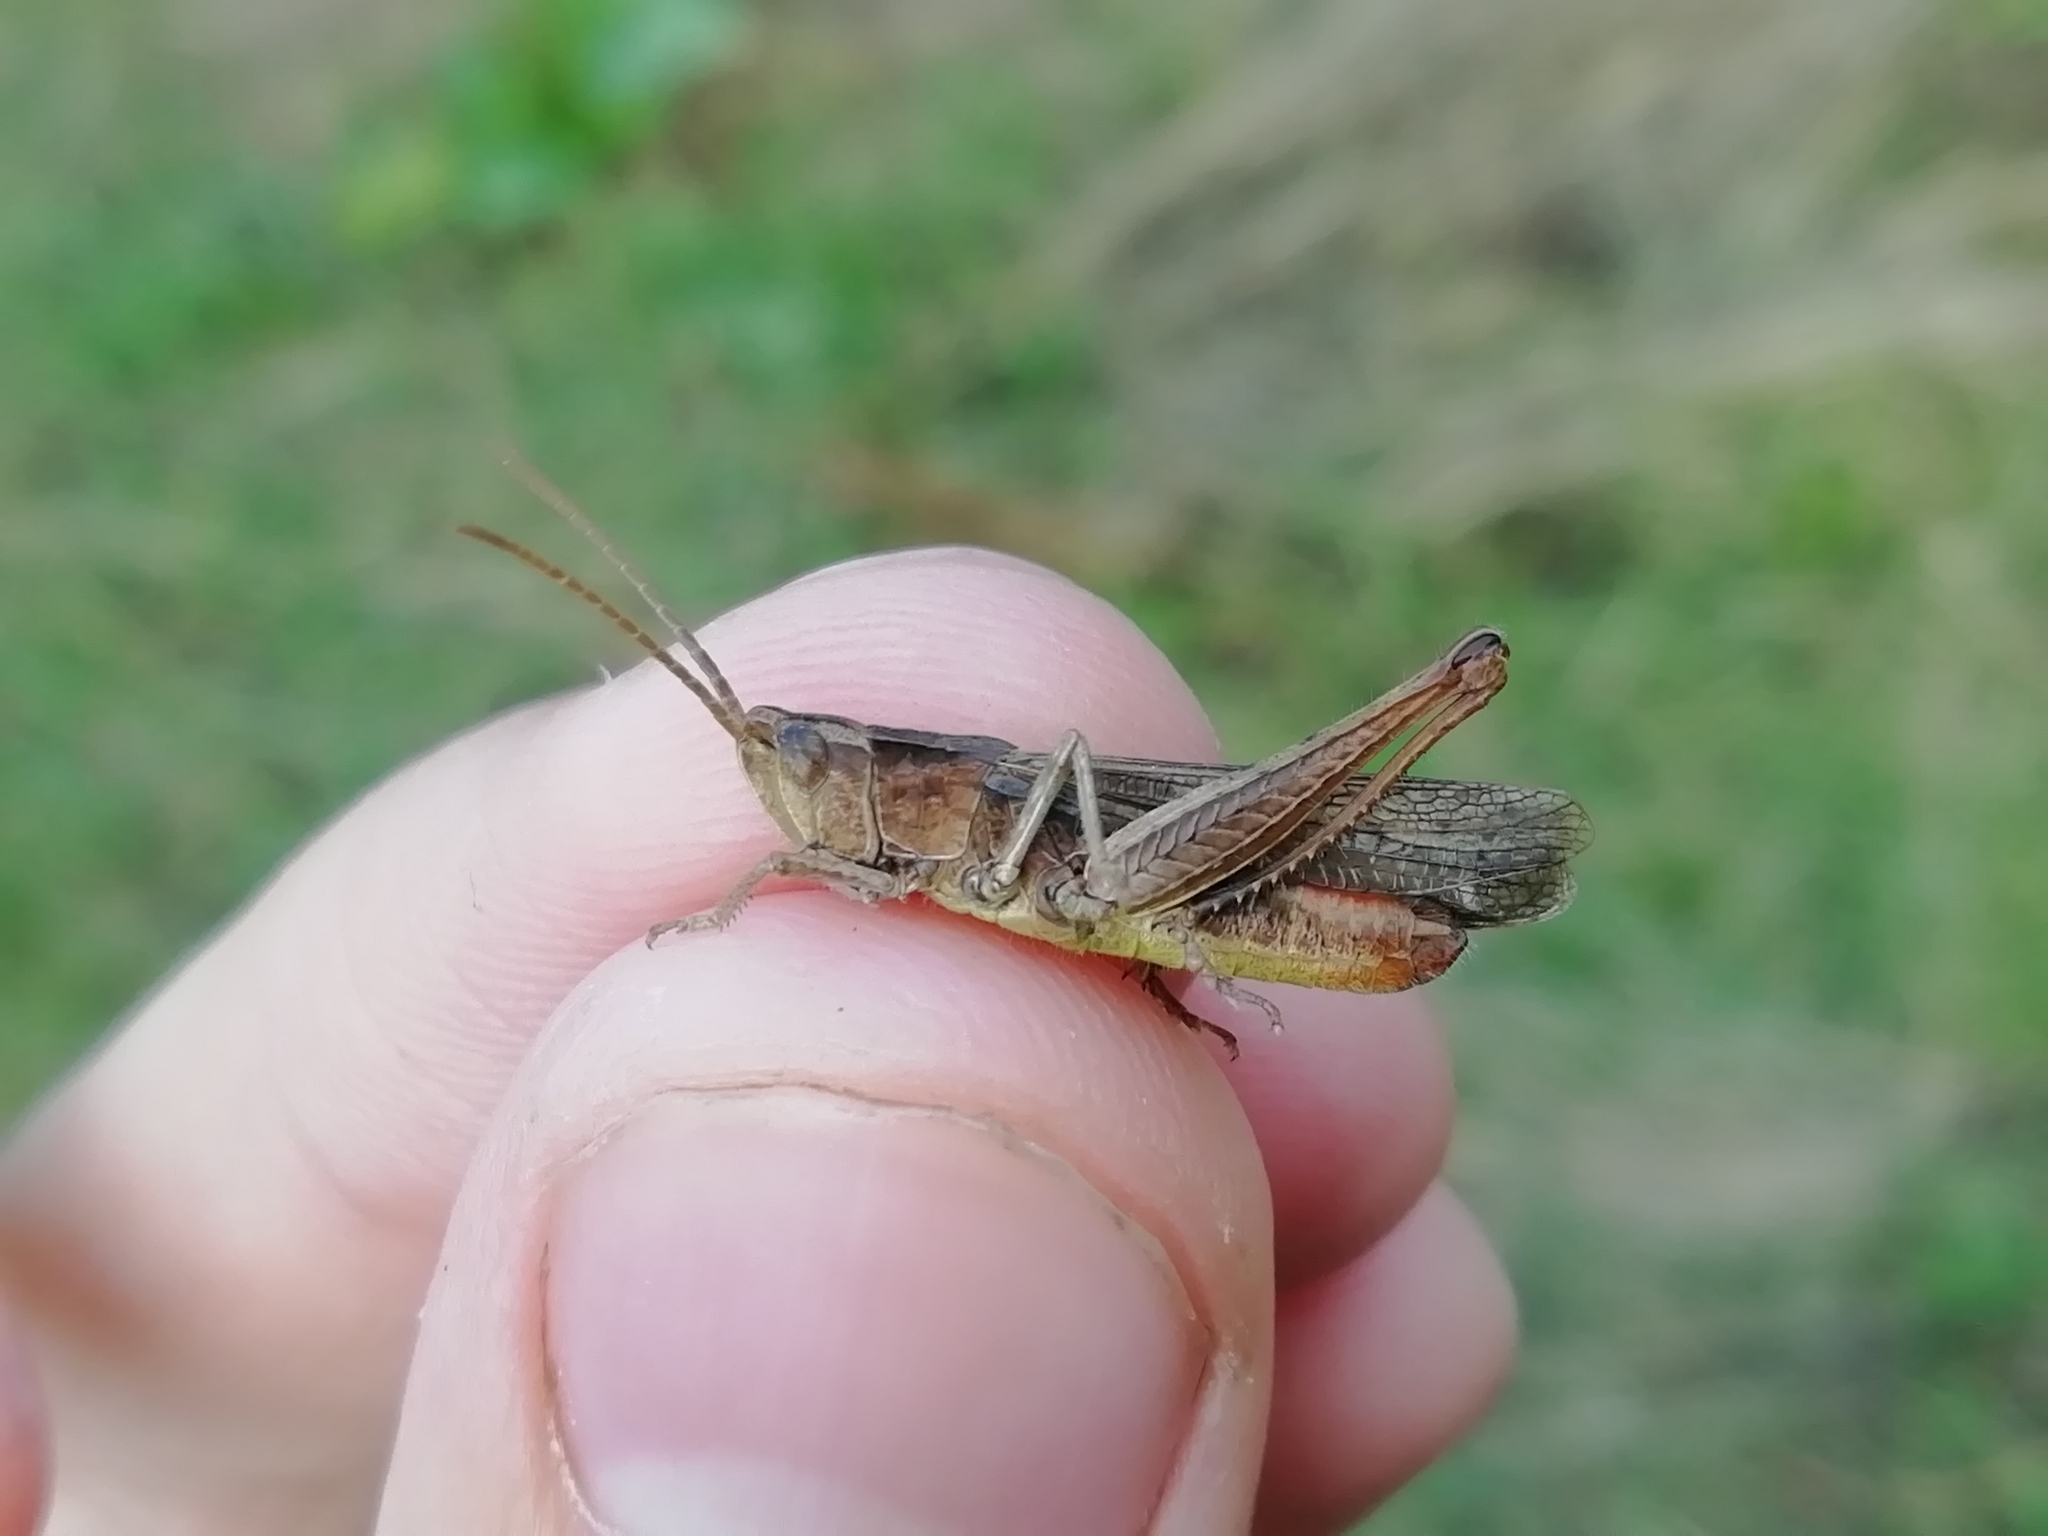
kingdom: Animalia
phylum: Arthropoda
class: Insecta
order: Orthoptera
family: Acrididae
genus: Chorthippus
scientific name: Chorthippus dorsatus
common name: Steppe grasshopper
